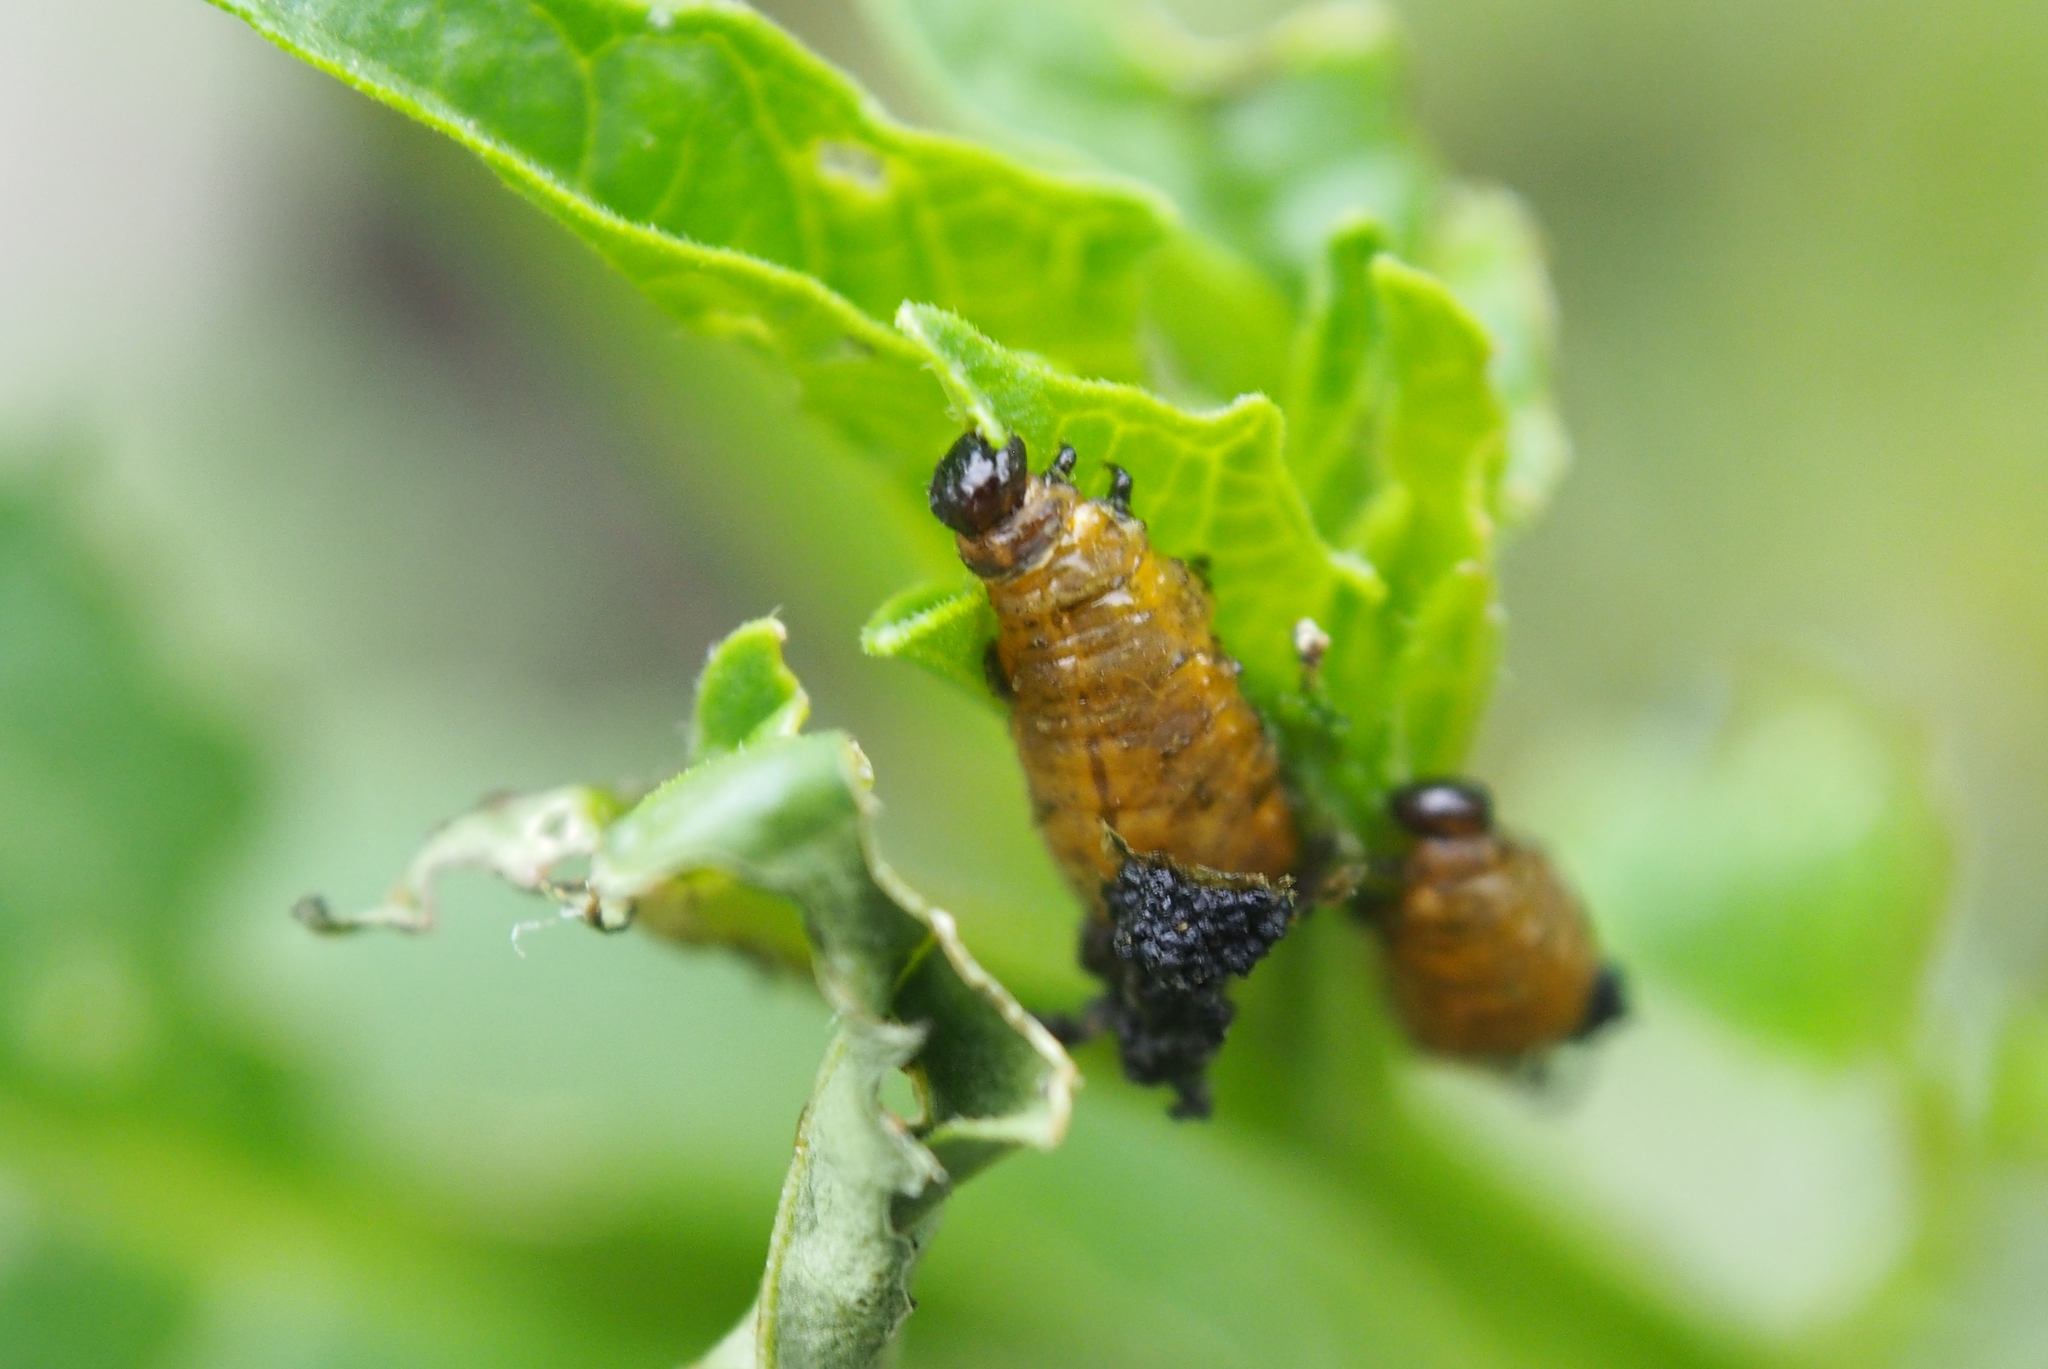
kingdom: Animalia
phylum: Arthropoda
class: Insecta
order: Coleoptera
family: Chrysomelidae
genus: Lema
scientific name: Lema daturaphila
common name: Leaf beetle
